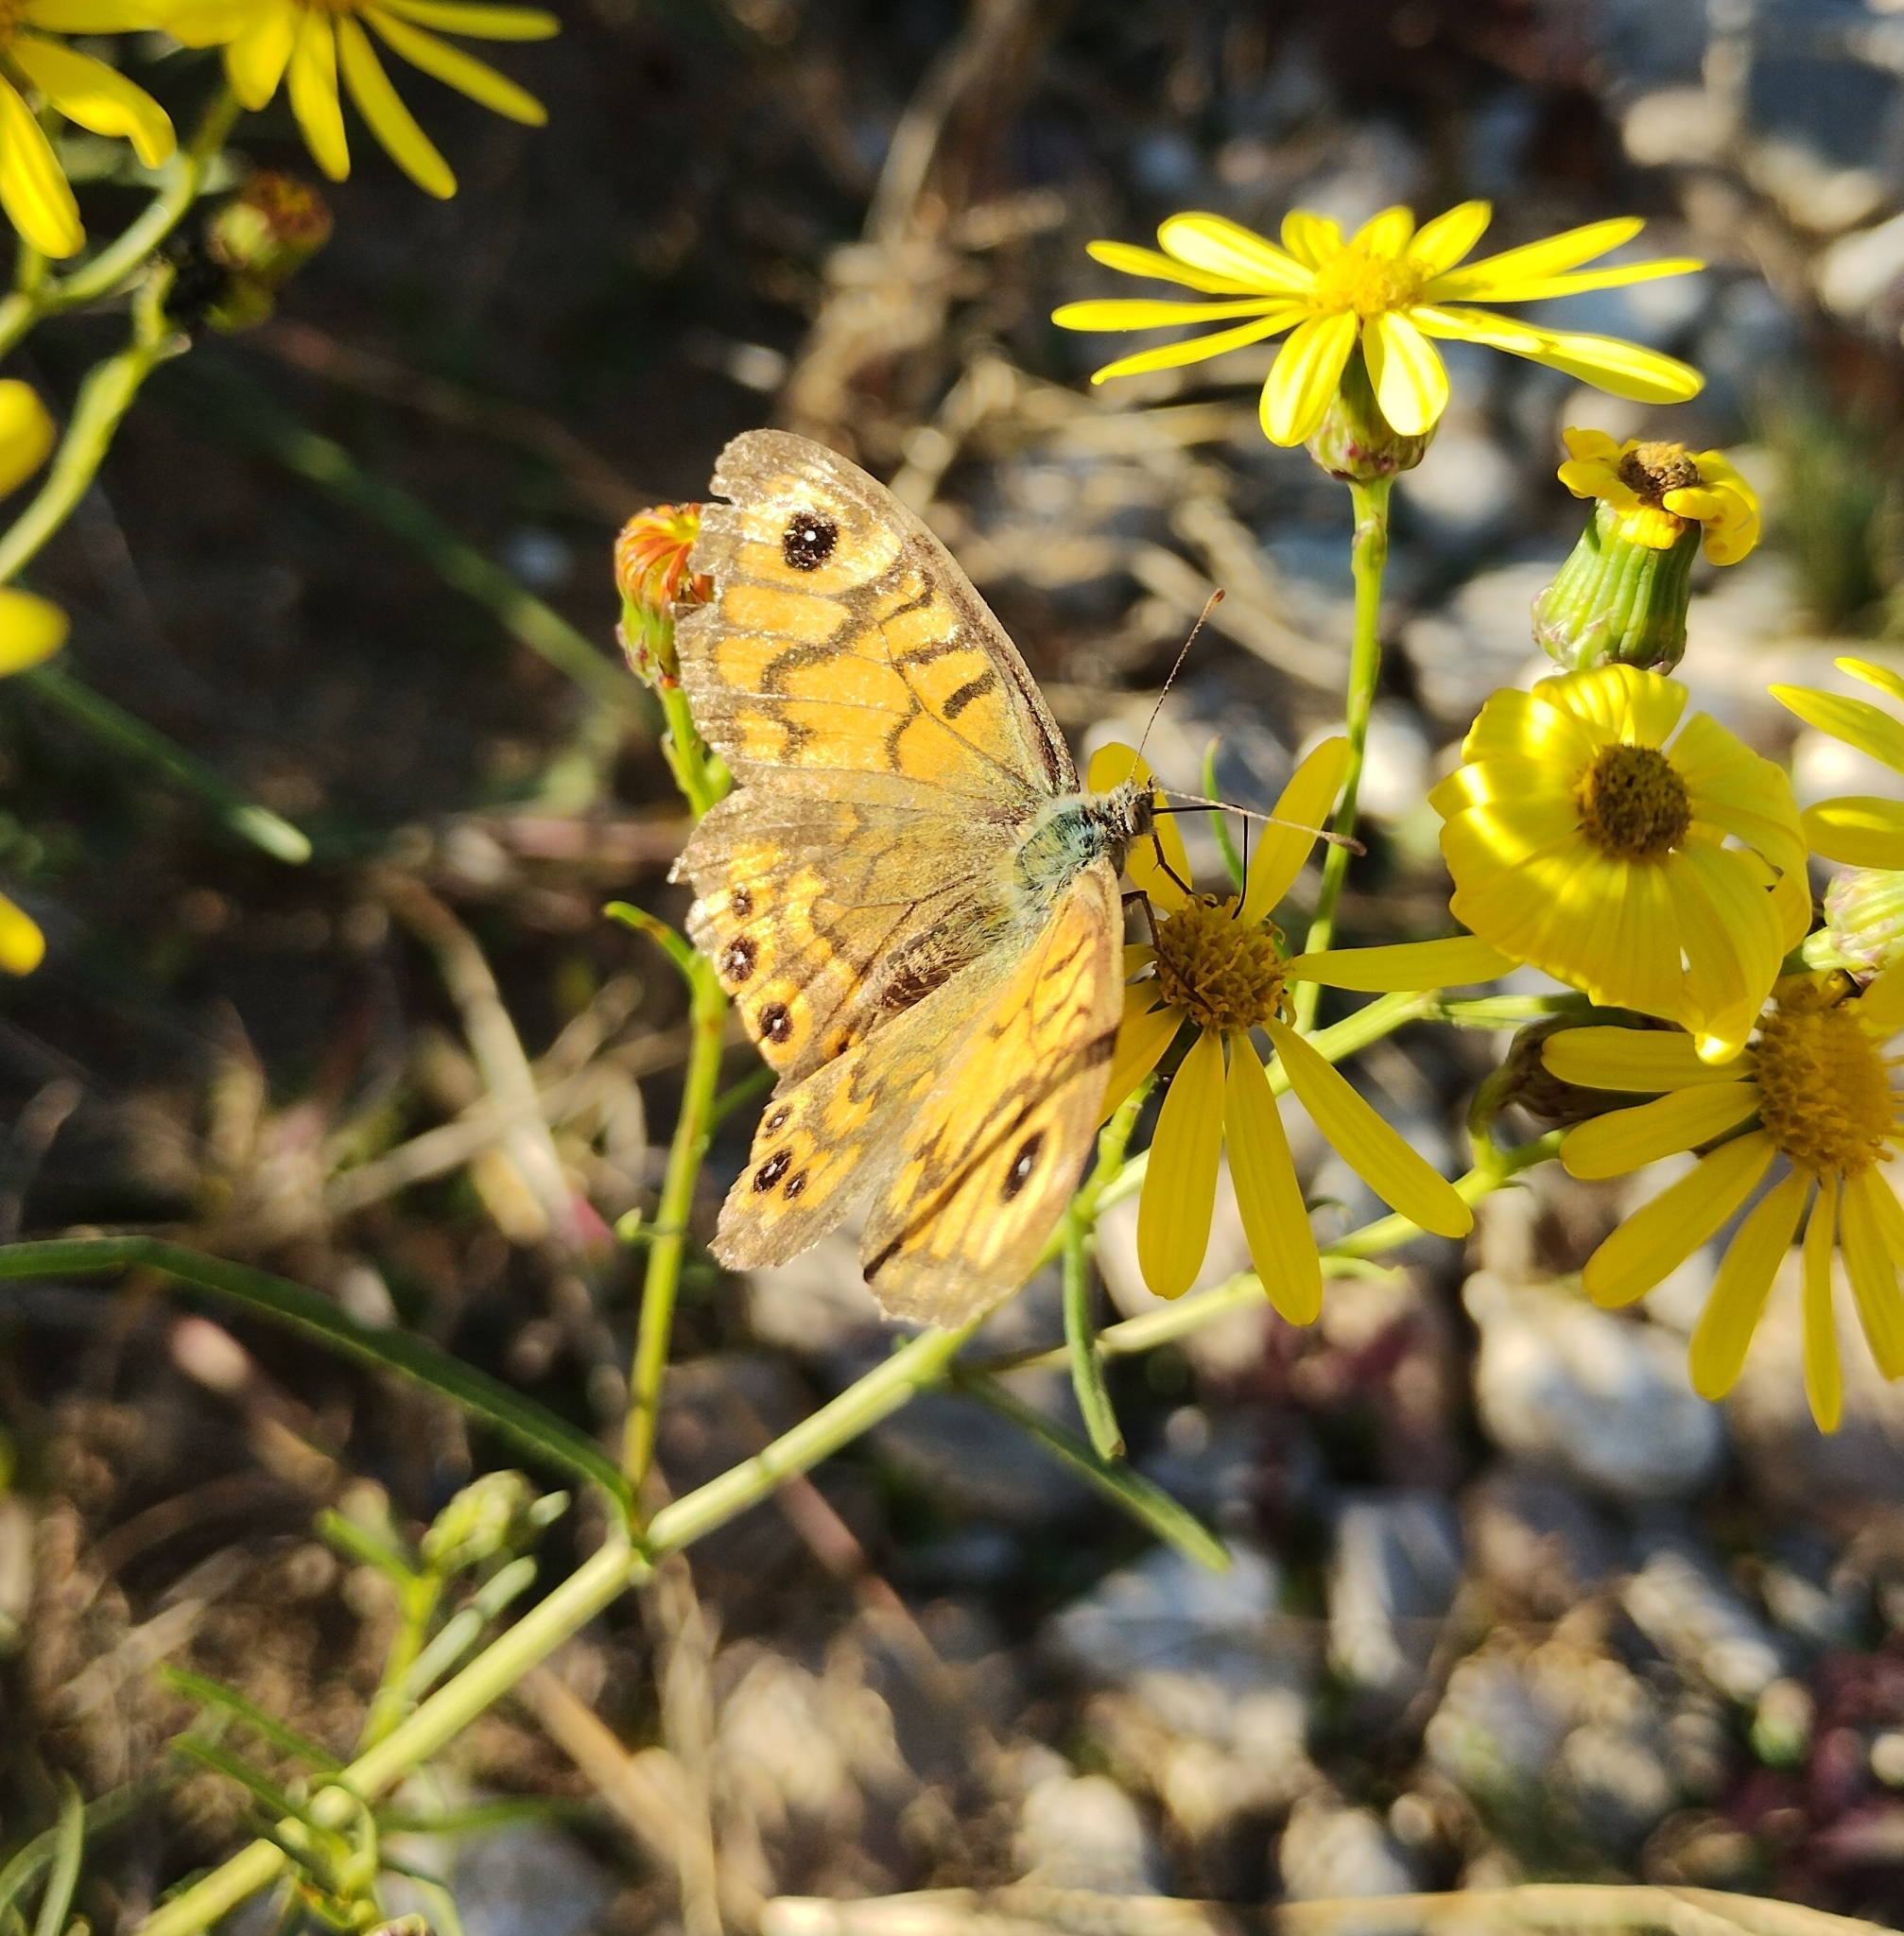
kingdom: Animalia
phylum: Arthropoda
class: Insecta
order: Lepidoptera
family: Nymphalidae
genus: Pararge
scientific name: Pararge Lasiommata megera
